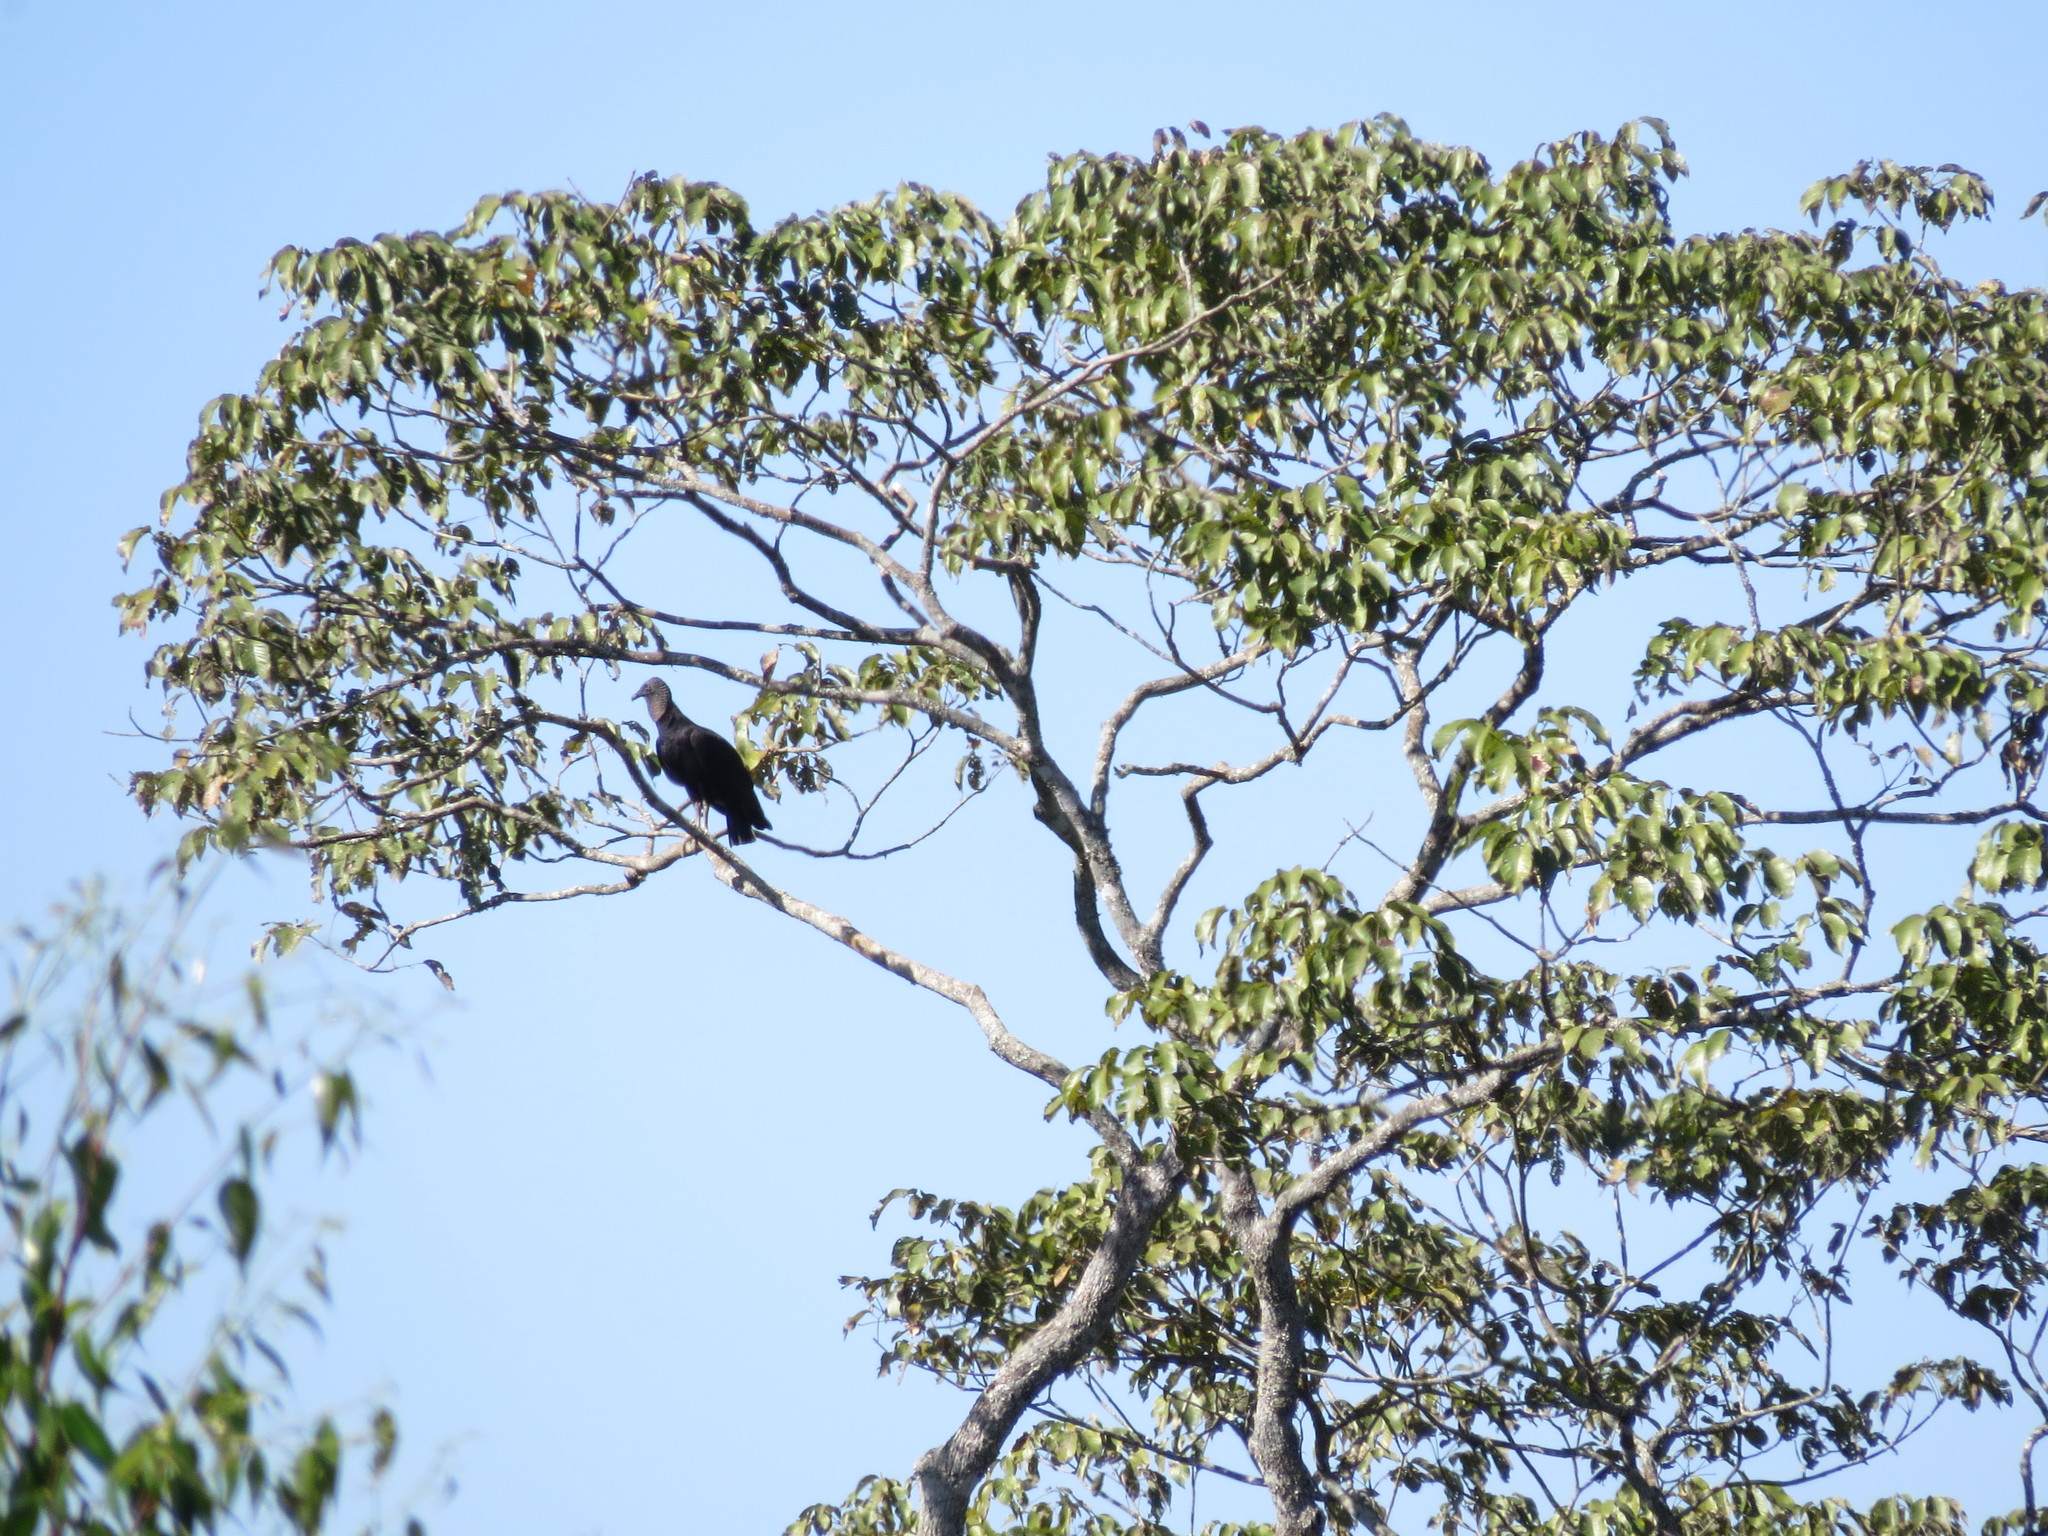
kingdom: Animalia
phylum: Chordata
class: Aves
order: Accipitriformes
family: Cathartidae
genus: Coragyps
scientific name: Coragyps atratus
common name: Black vulture
